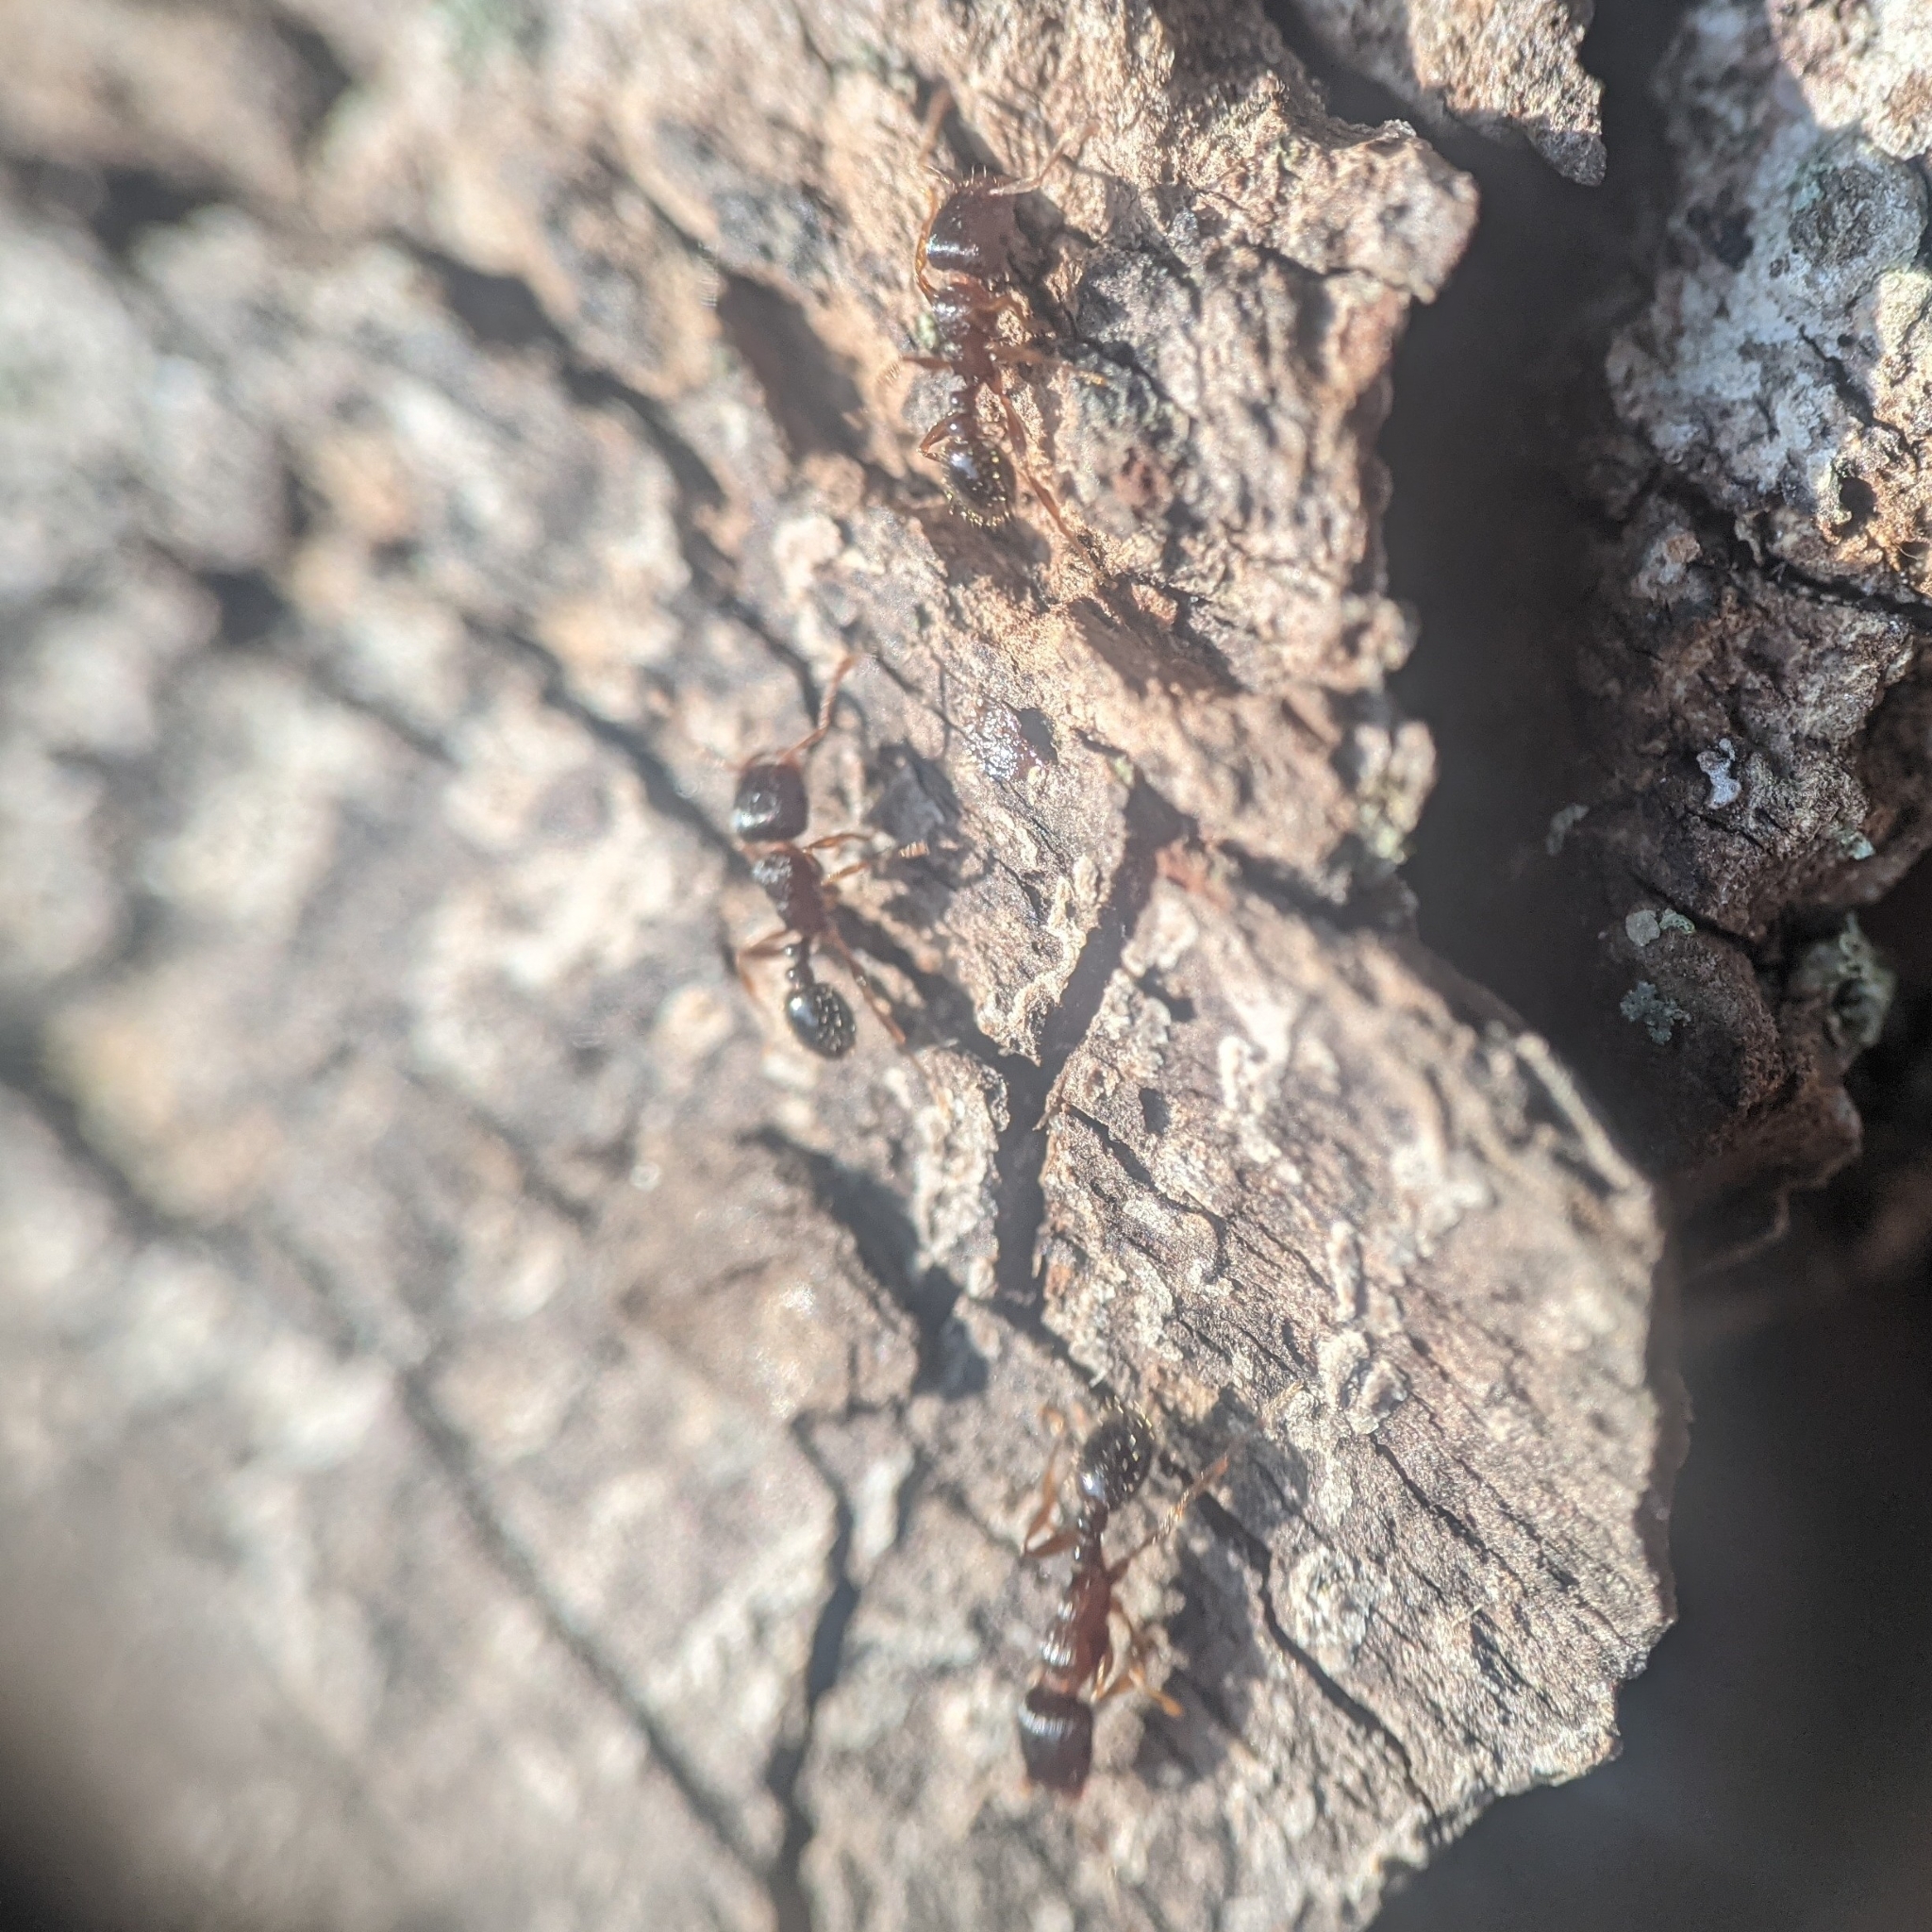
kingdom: Animalia
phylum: Arthropoda
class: Insecta
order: Hymenoptera
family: Formicidae
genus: Tetramorium
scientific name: Tetramorium immigrans
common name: Pavement ant
